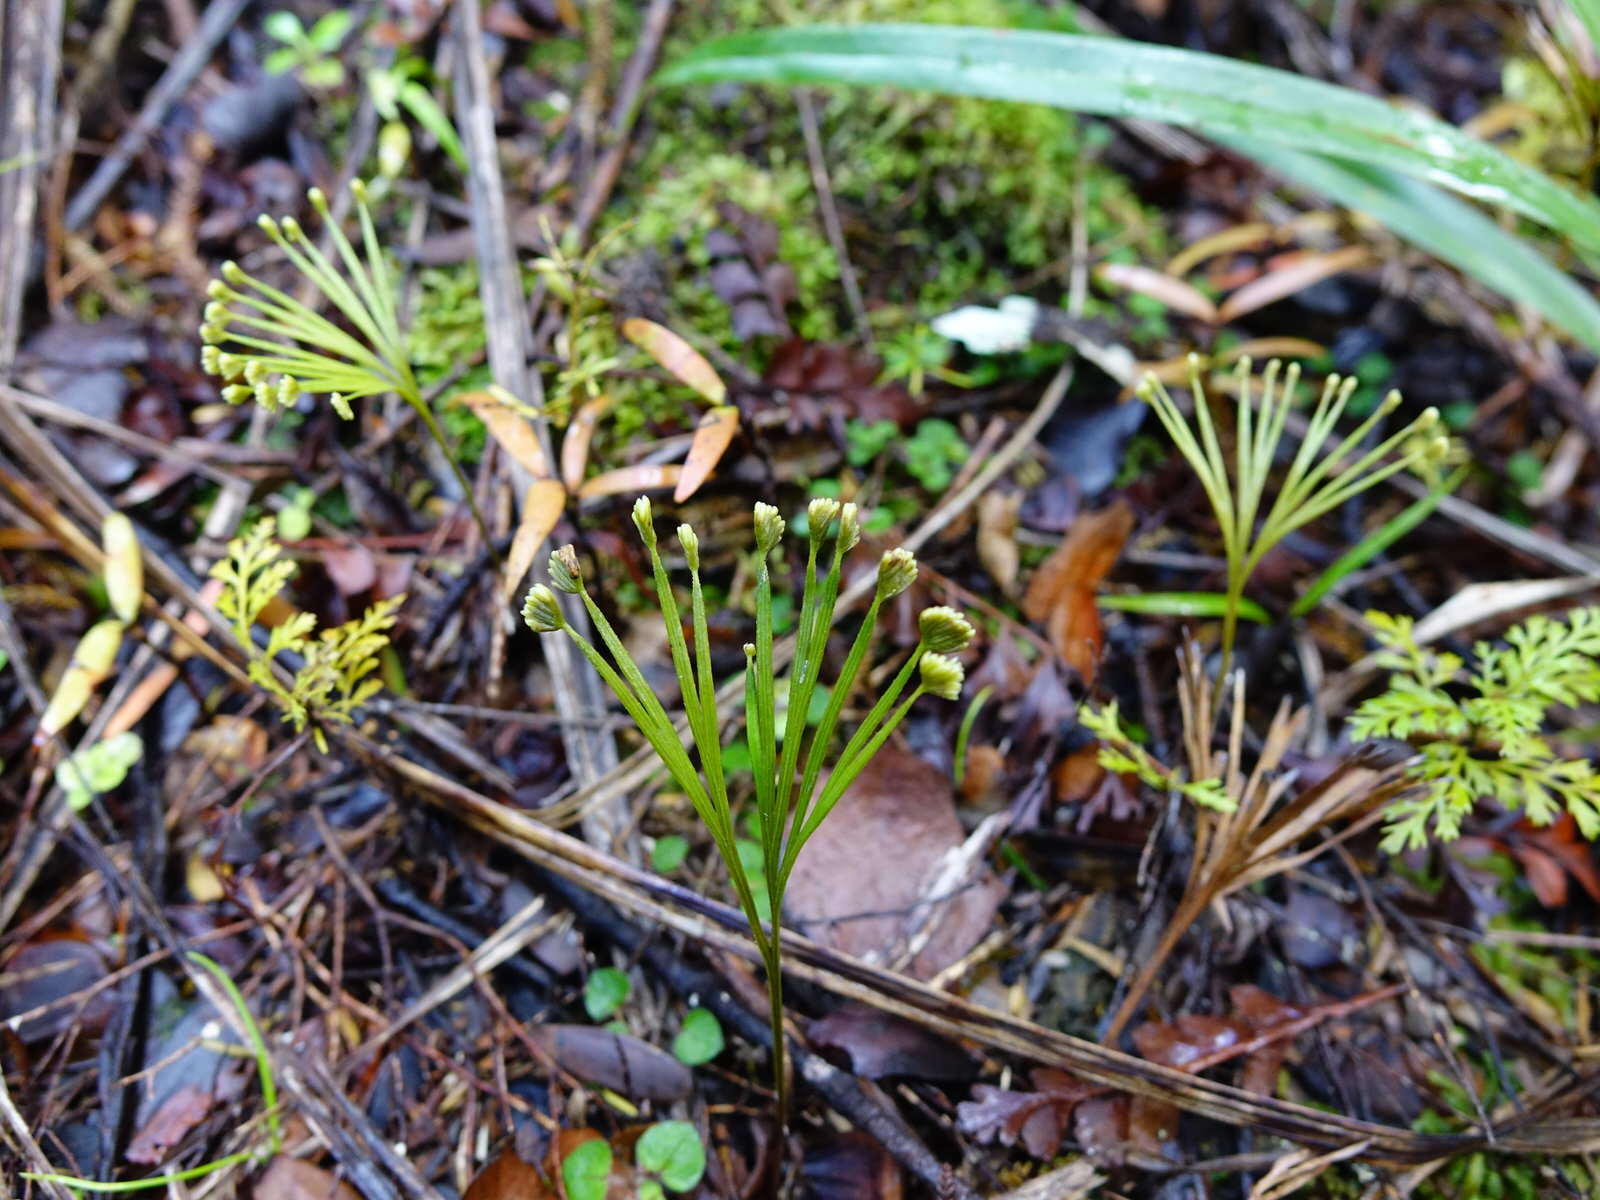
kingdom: Plantae
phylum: Tracheophyta
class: Polypodiopsida
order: Schizaeales
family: Schizaeaceae
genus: Schizaea
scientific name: Schizaea dichotoma
